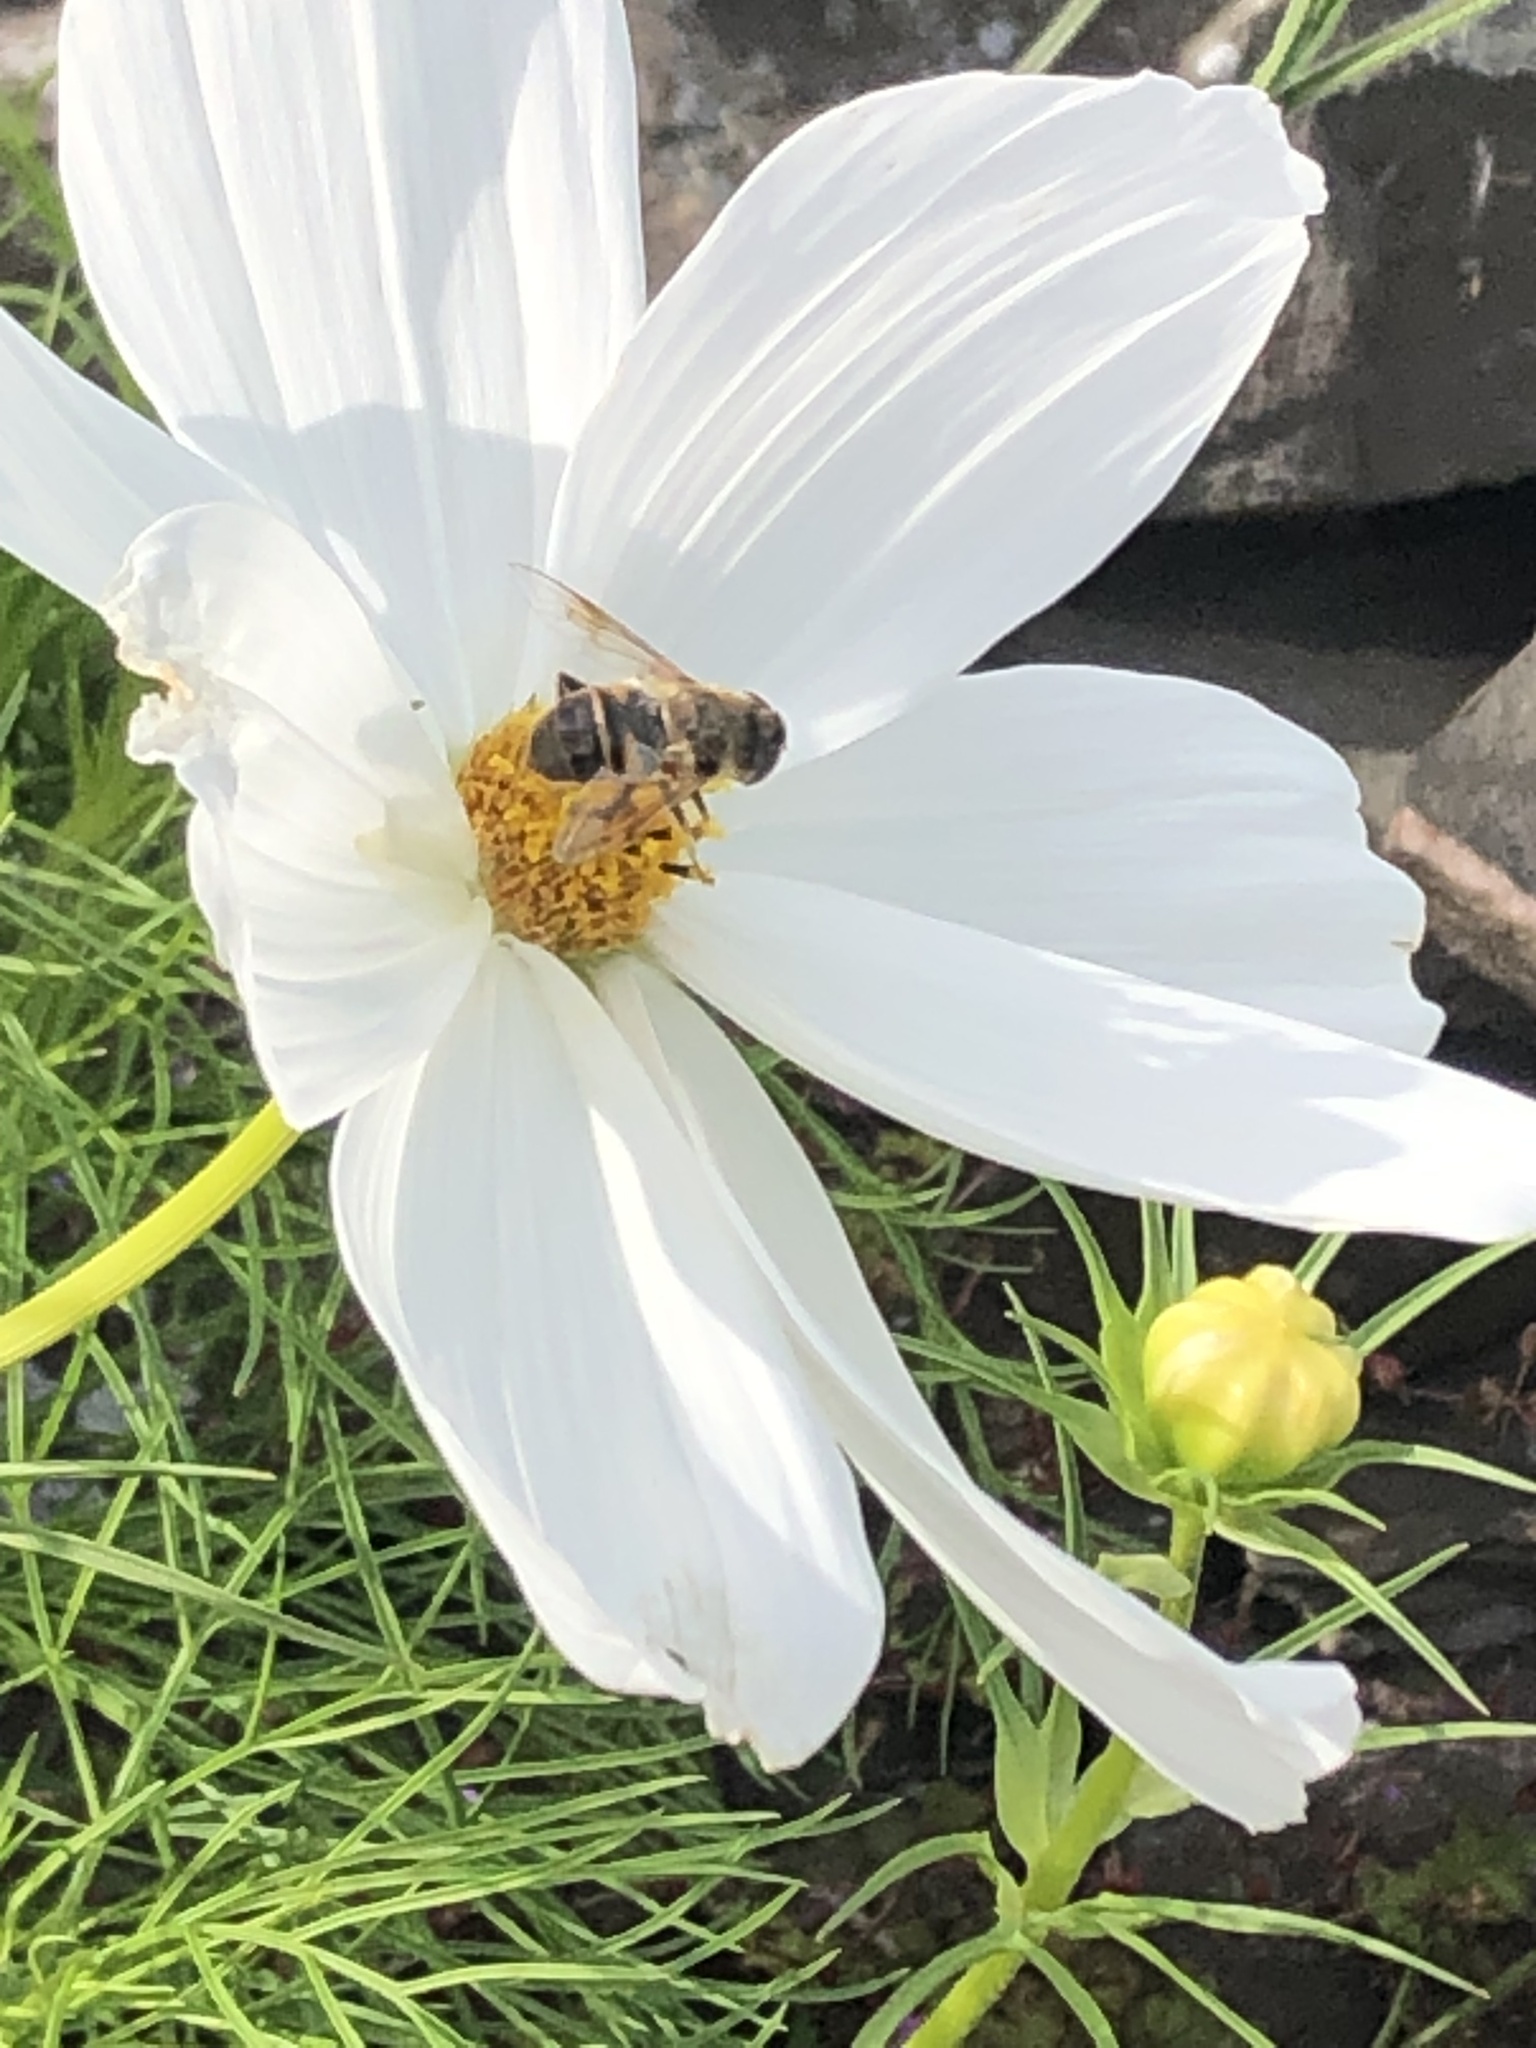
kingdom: Animalia
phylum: Arthropoda
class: Insecta
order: Diptera
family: Syrphidae
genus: Eristalis
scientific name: Eristalis
